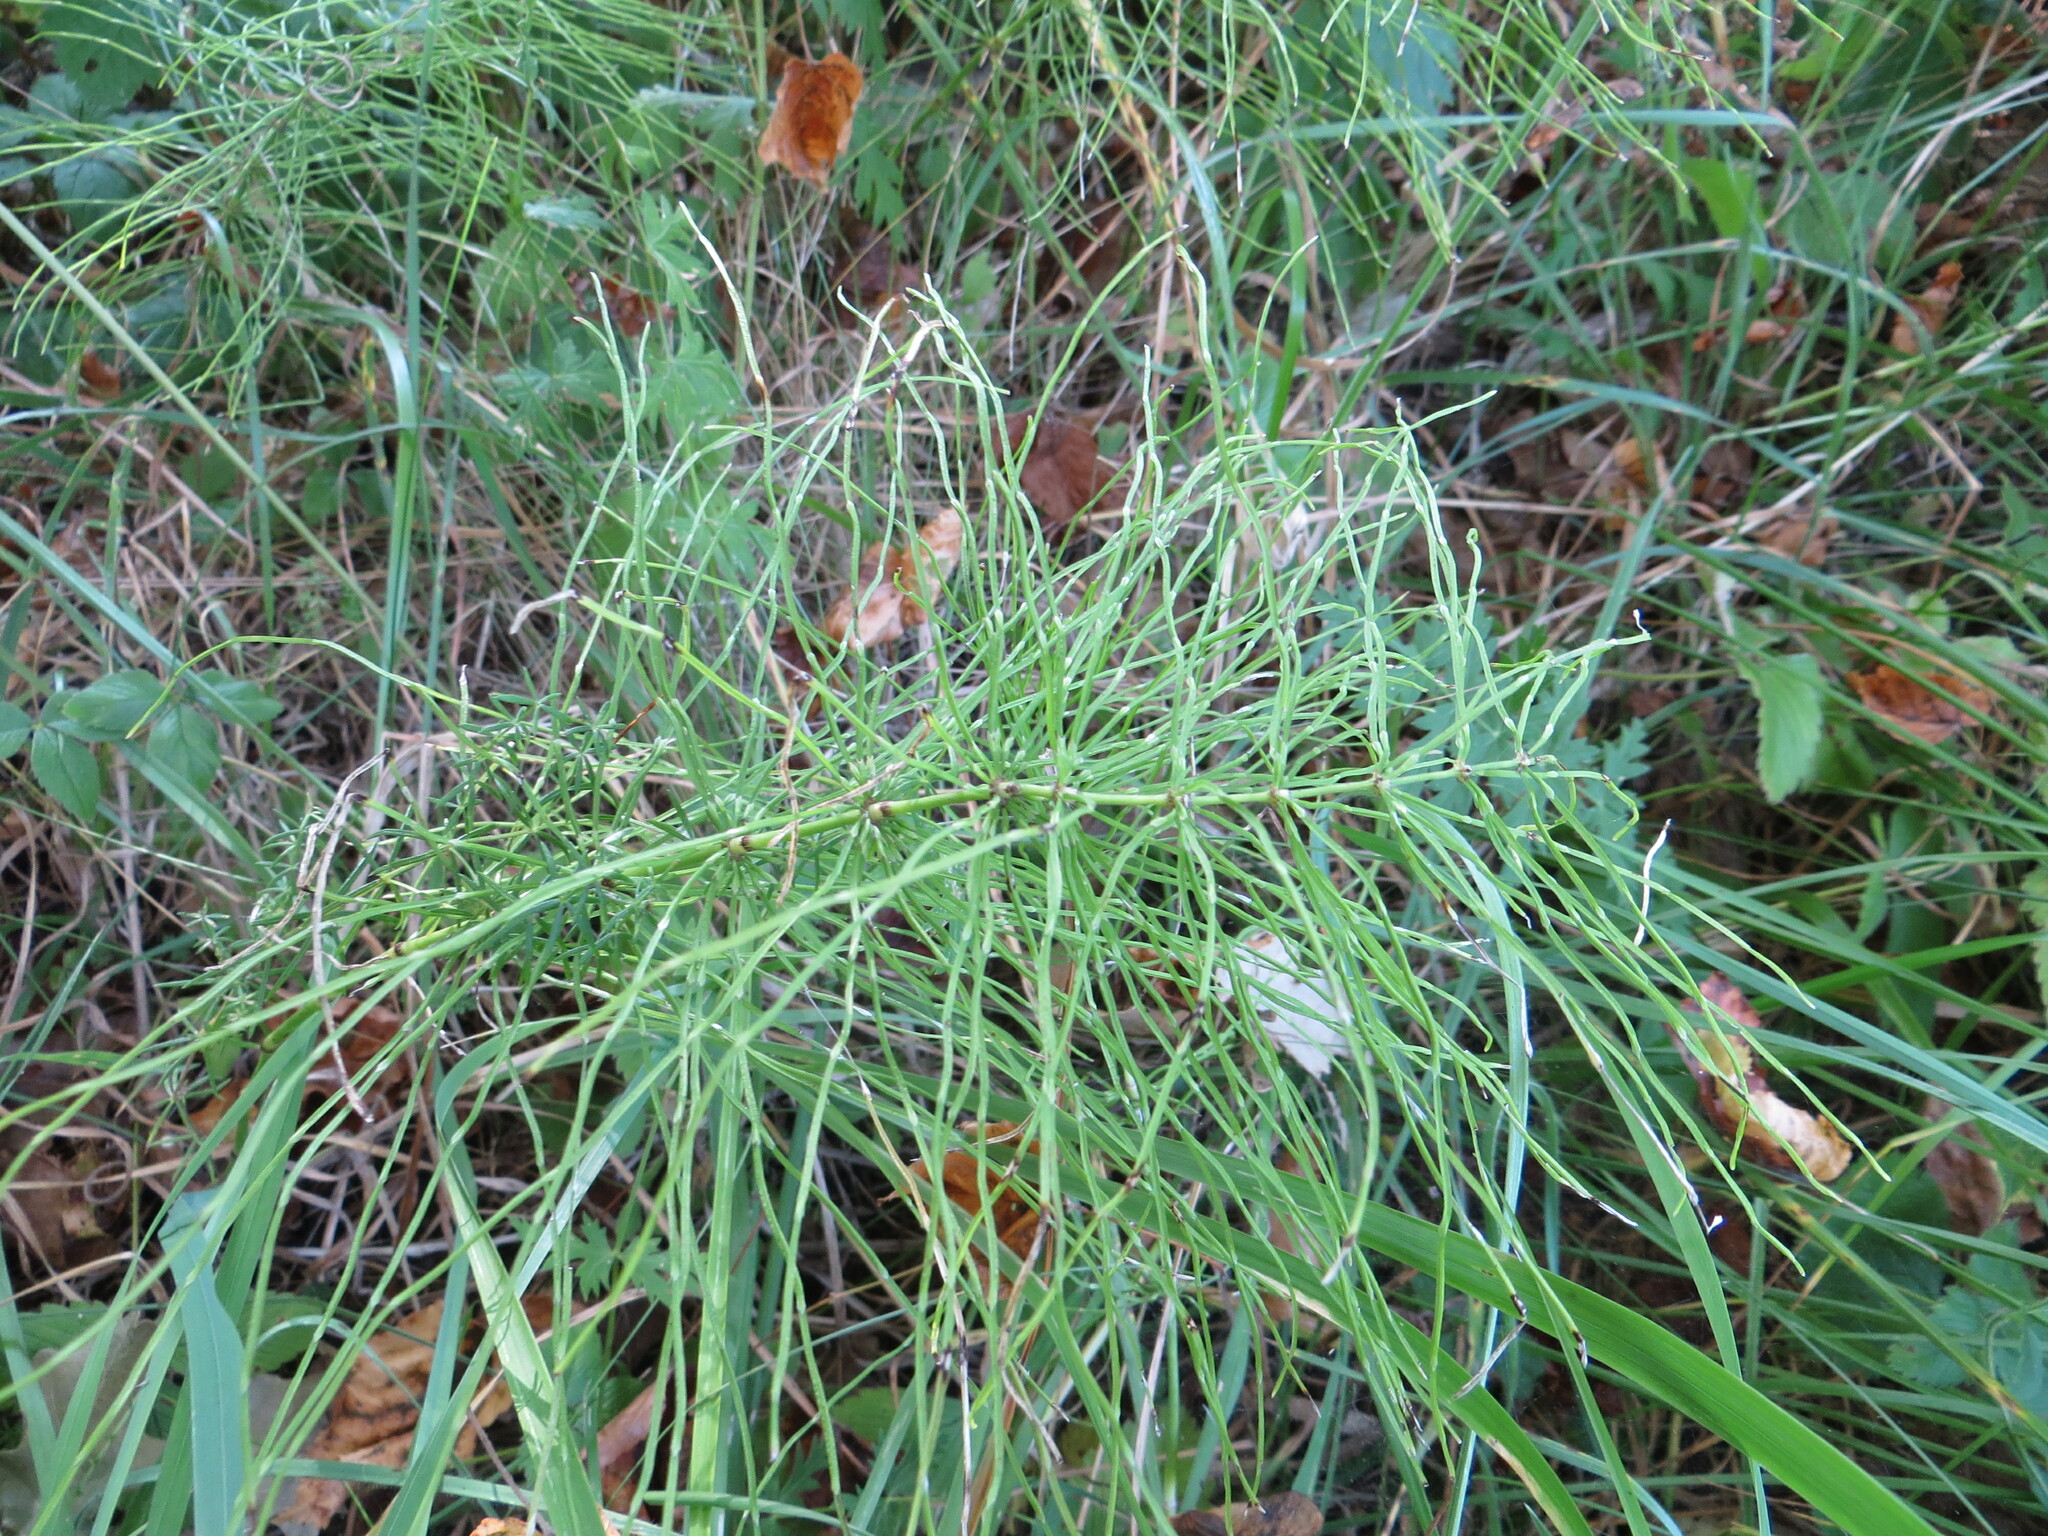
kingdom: Plantae
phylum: Tracheophyta
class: Polypodiopsida
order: Equisetales
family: Equisetaceae
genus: Equisetum
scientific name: Equisetum pratense
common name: Meadow horsetail
